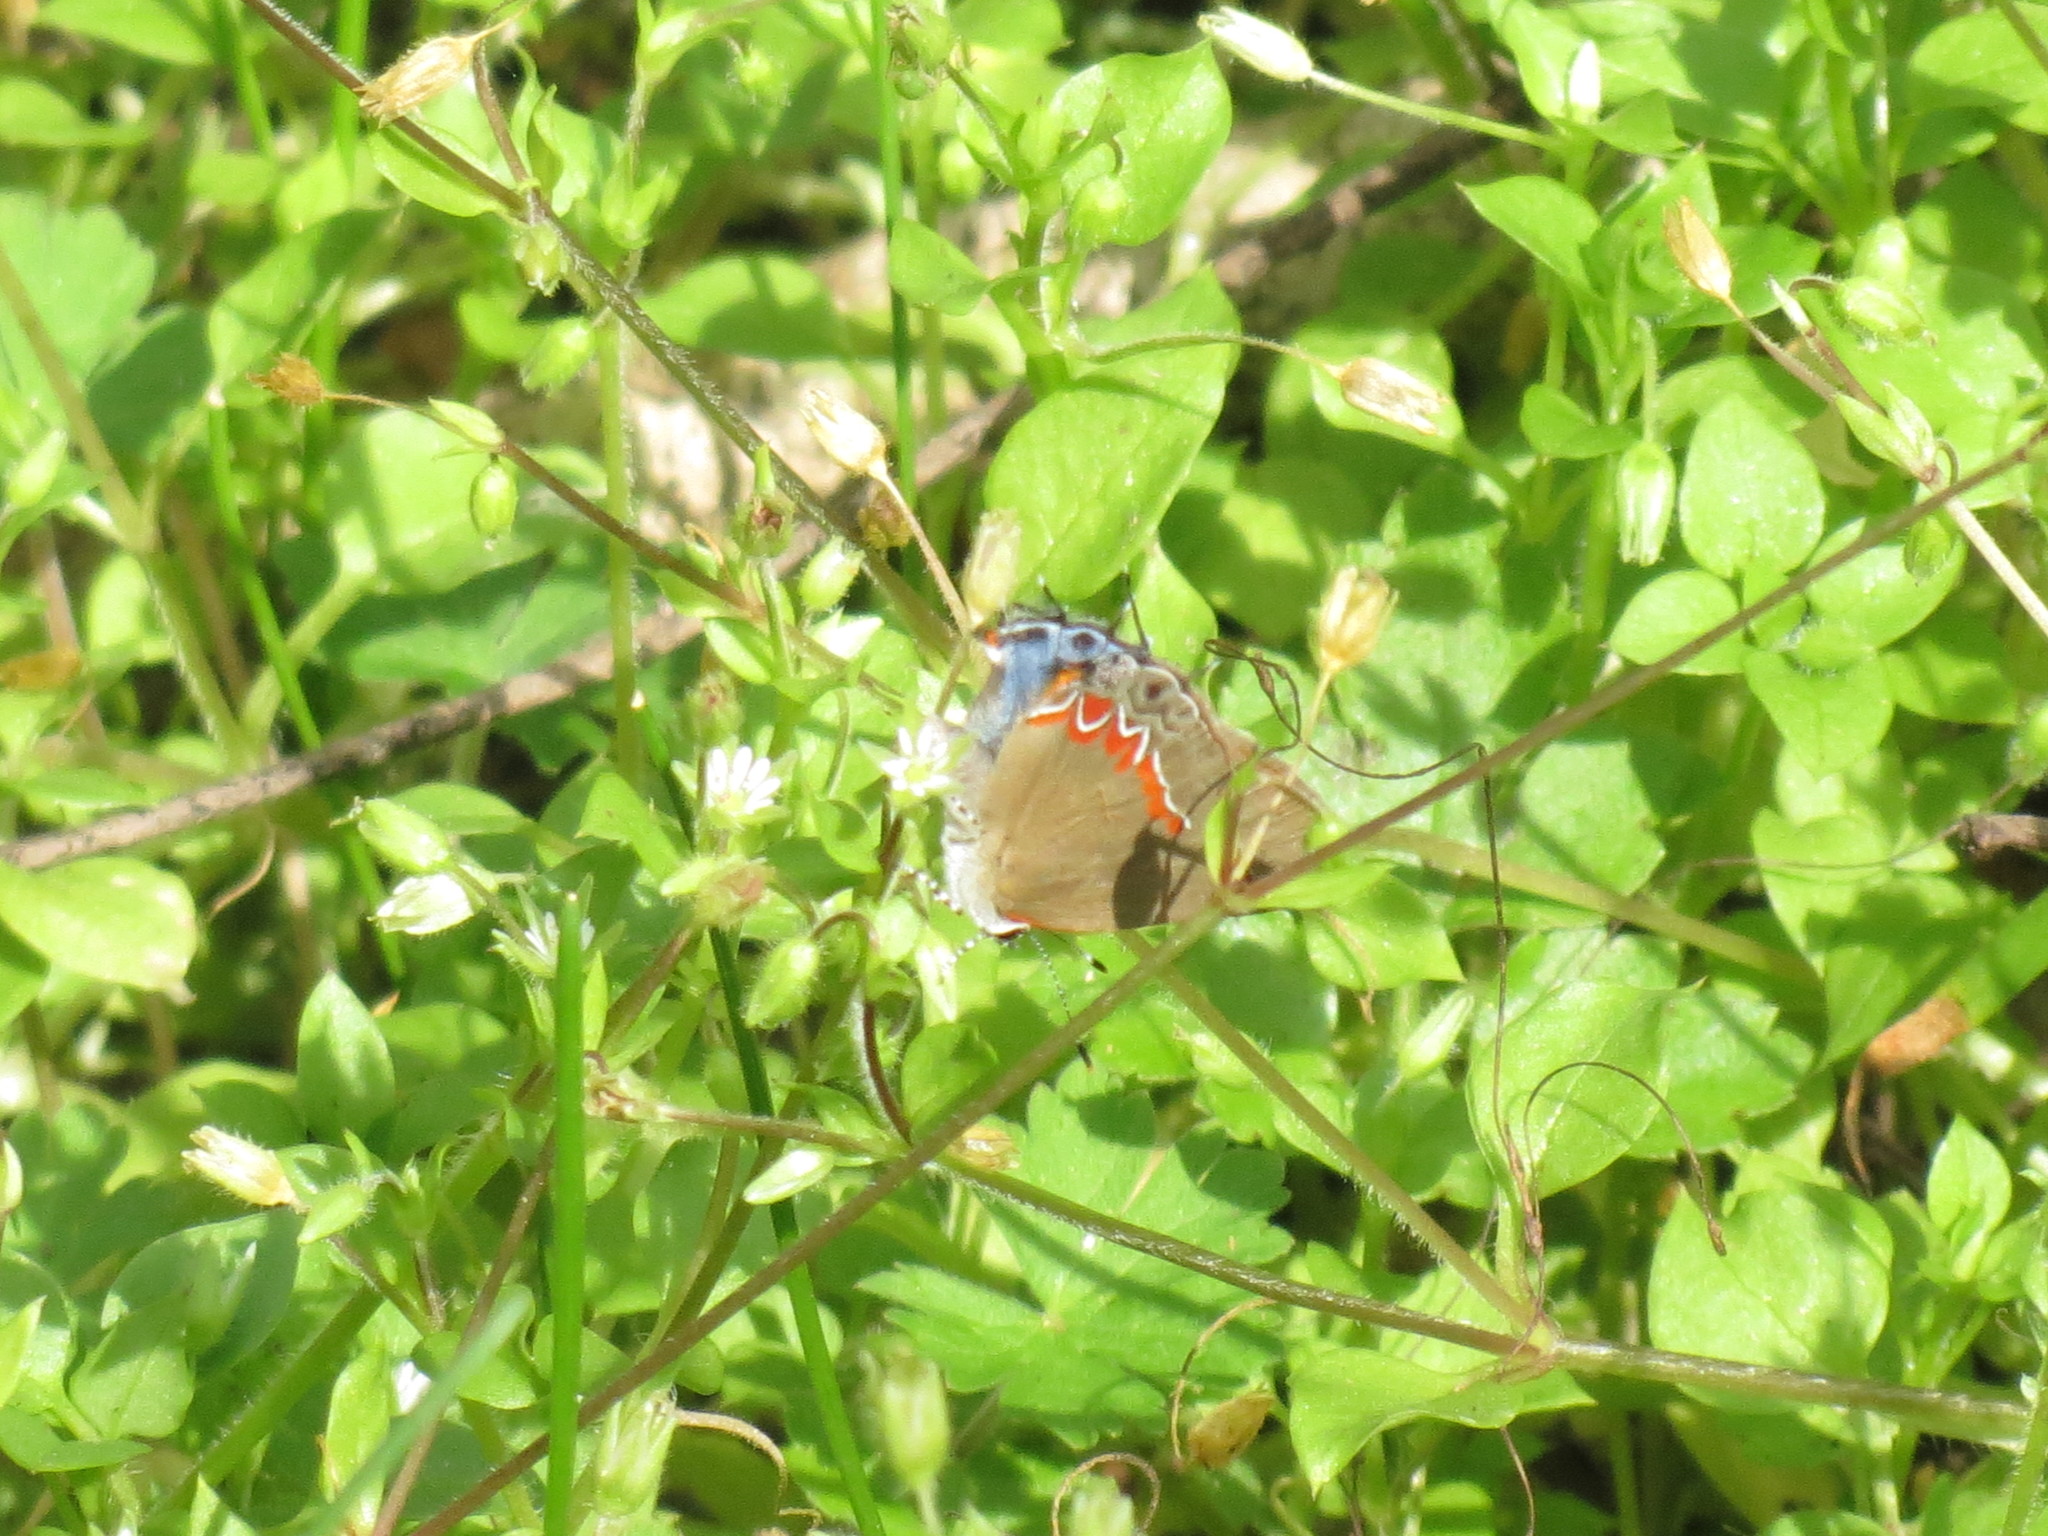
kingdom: Animalia
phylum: Arthropoda
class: Insecta
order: Lepidoptera
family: Lycaenidae
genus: Calycopis
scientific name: Calycopis cecrops
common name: Red-banded hairstreak
